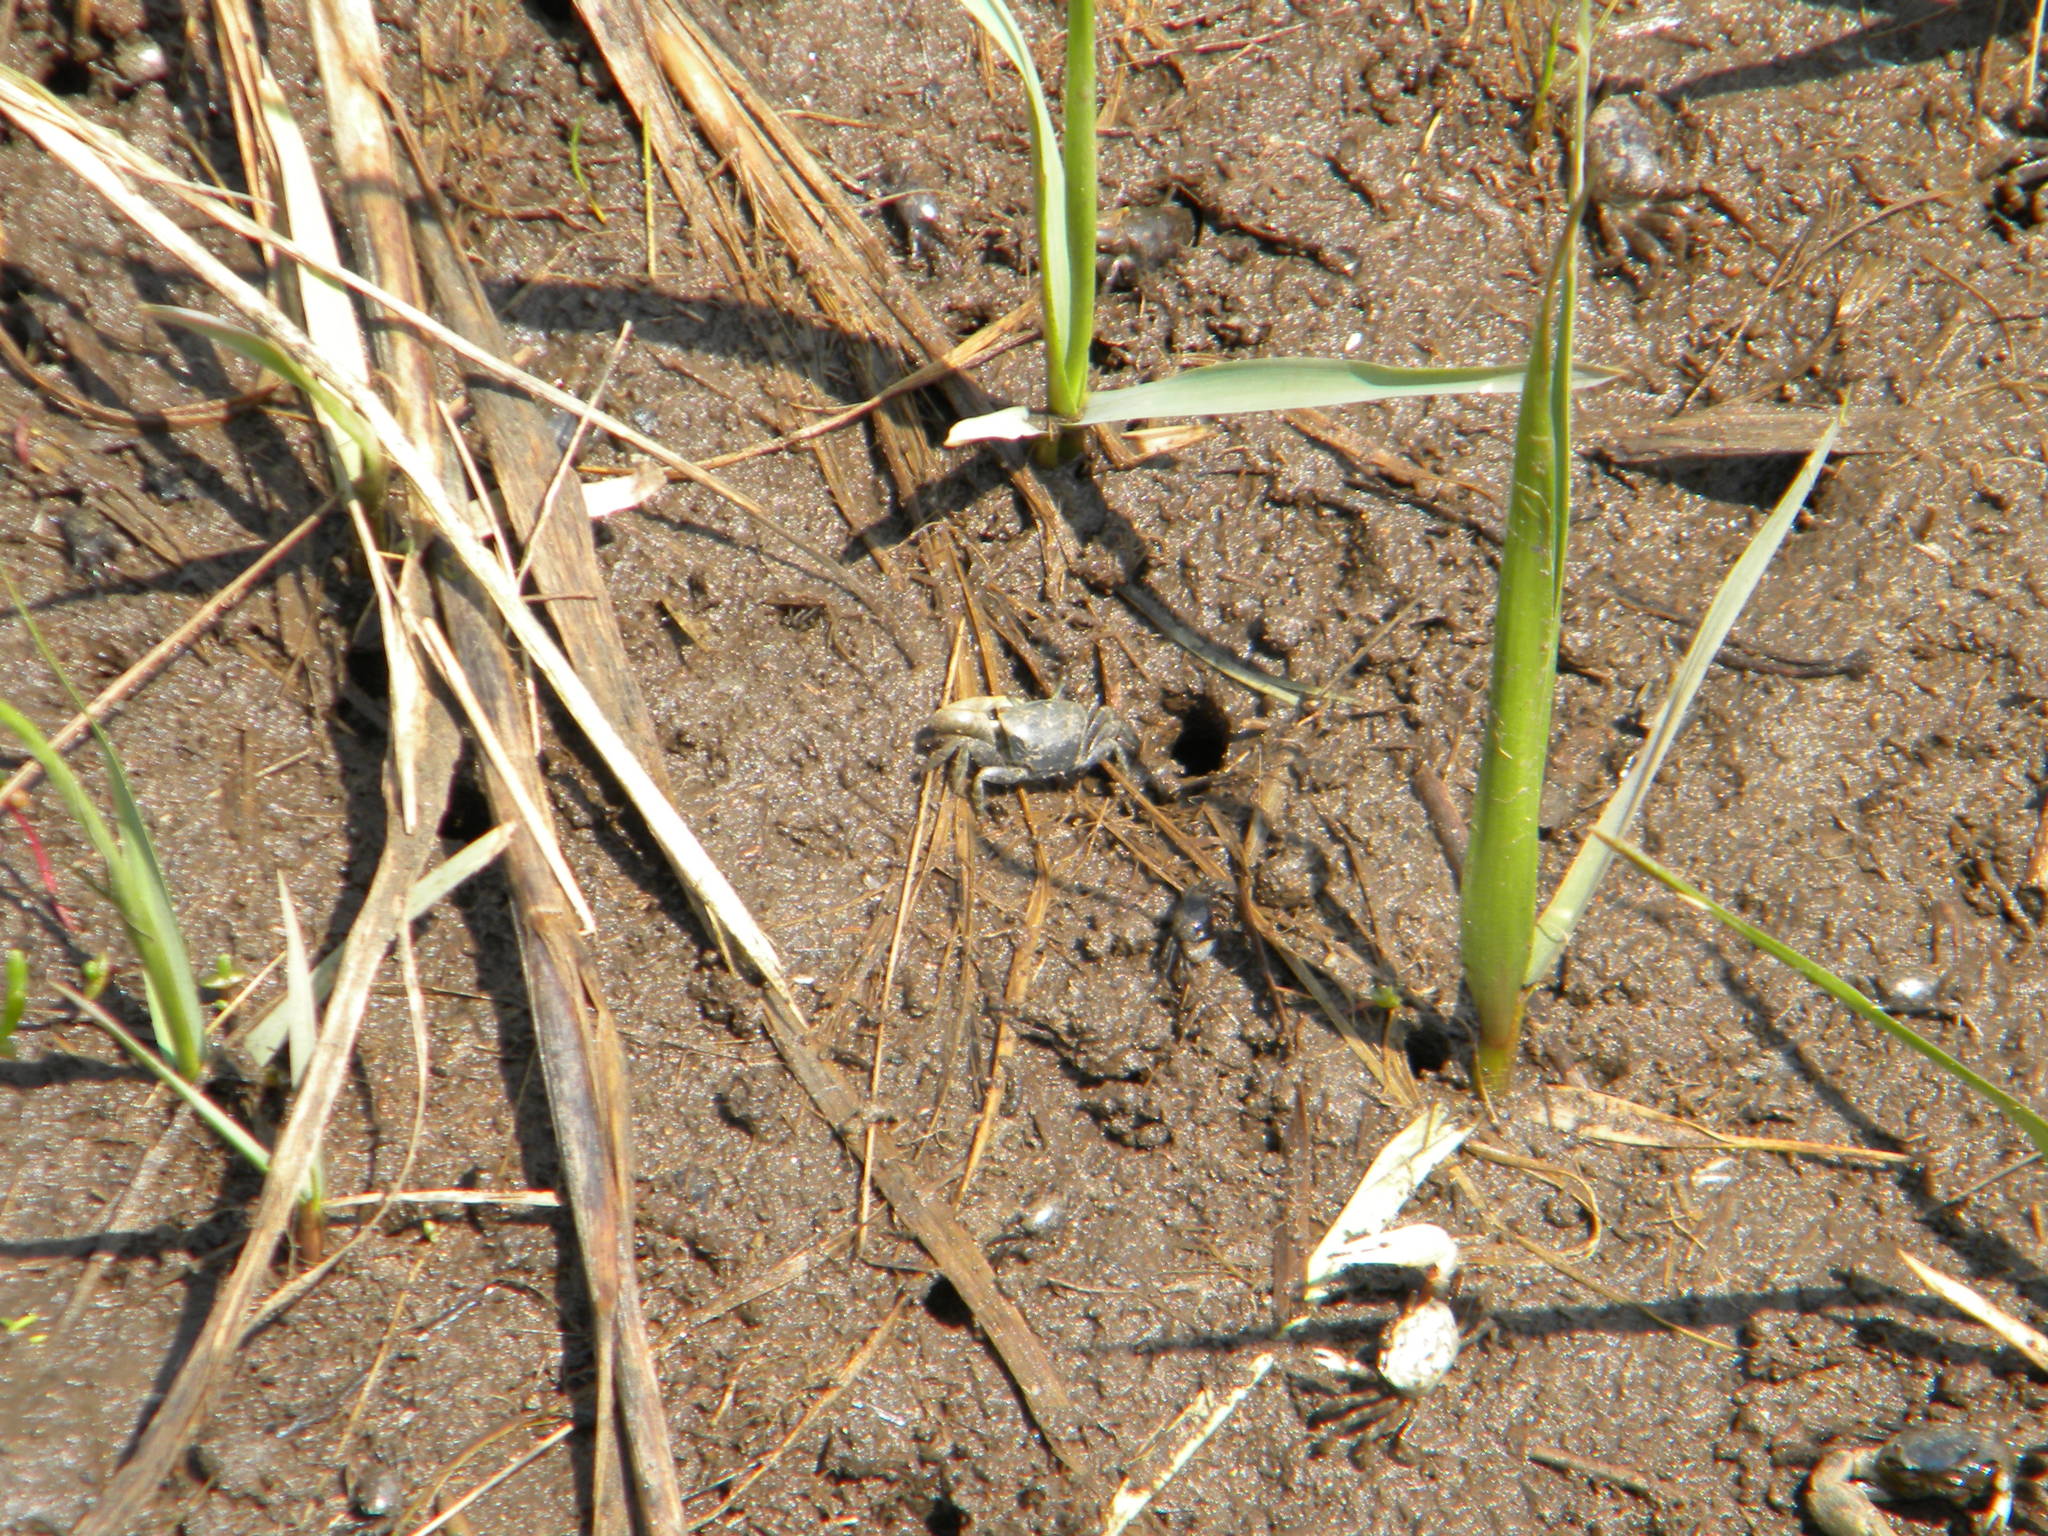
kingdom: Animalia
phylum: Arthropoda
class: Malacostraca
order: Decapoda
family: Ocypodidae
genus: Minuca
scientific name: Minuca pugnax
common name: Mud fiddler crab
